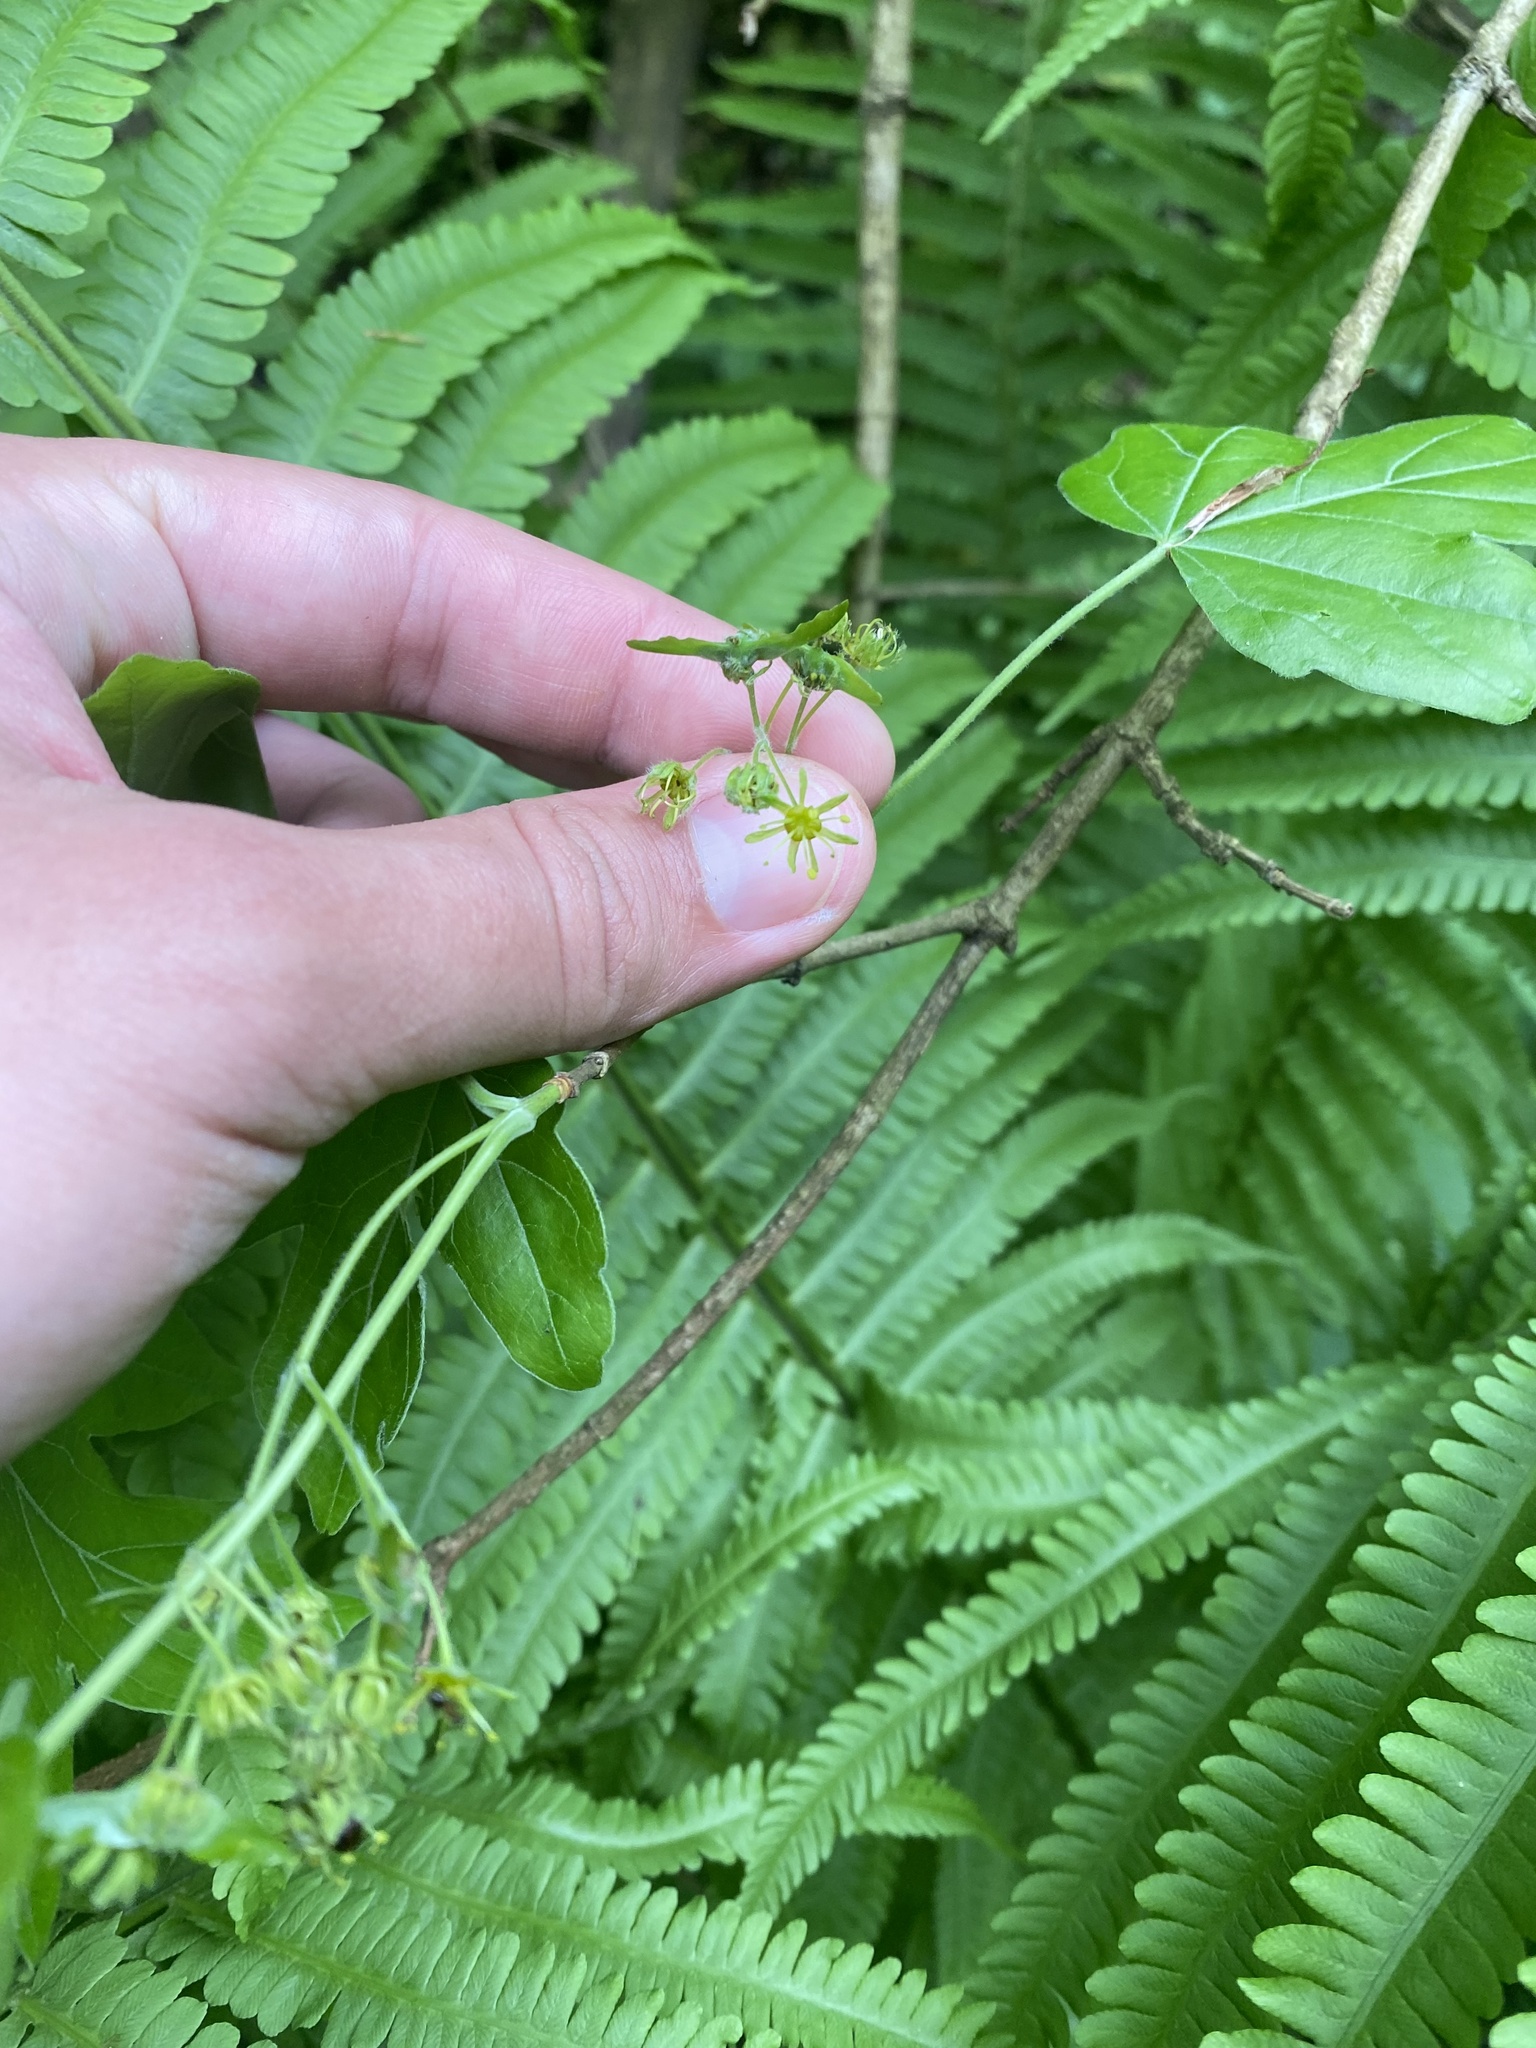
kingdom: Plantae
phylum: Tracheophyta
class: Magnoliopsida
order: Sapindales
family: Sapindaceae
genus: Acer
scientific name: Acer campestre
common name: Field maple
